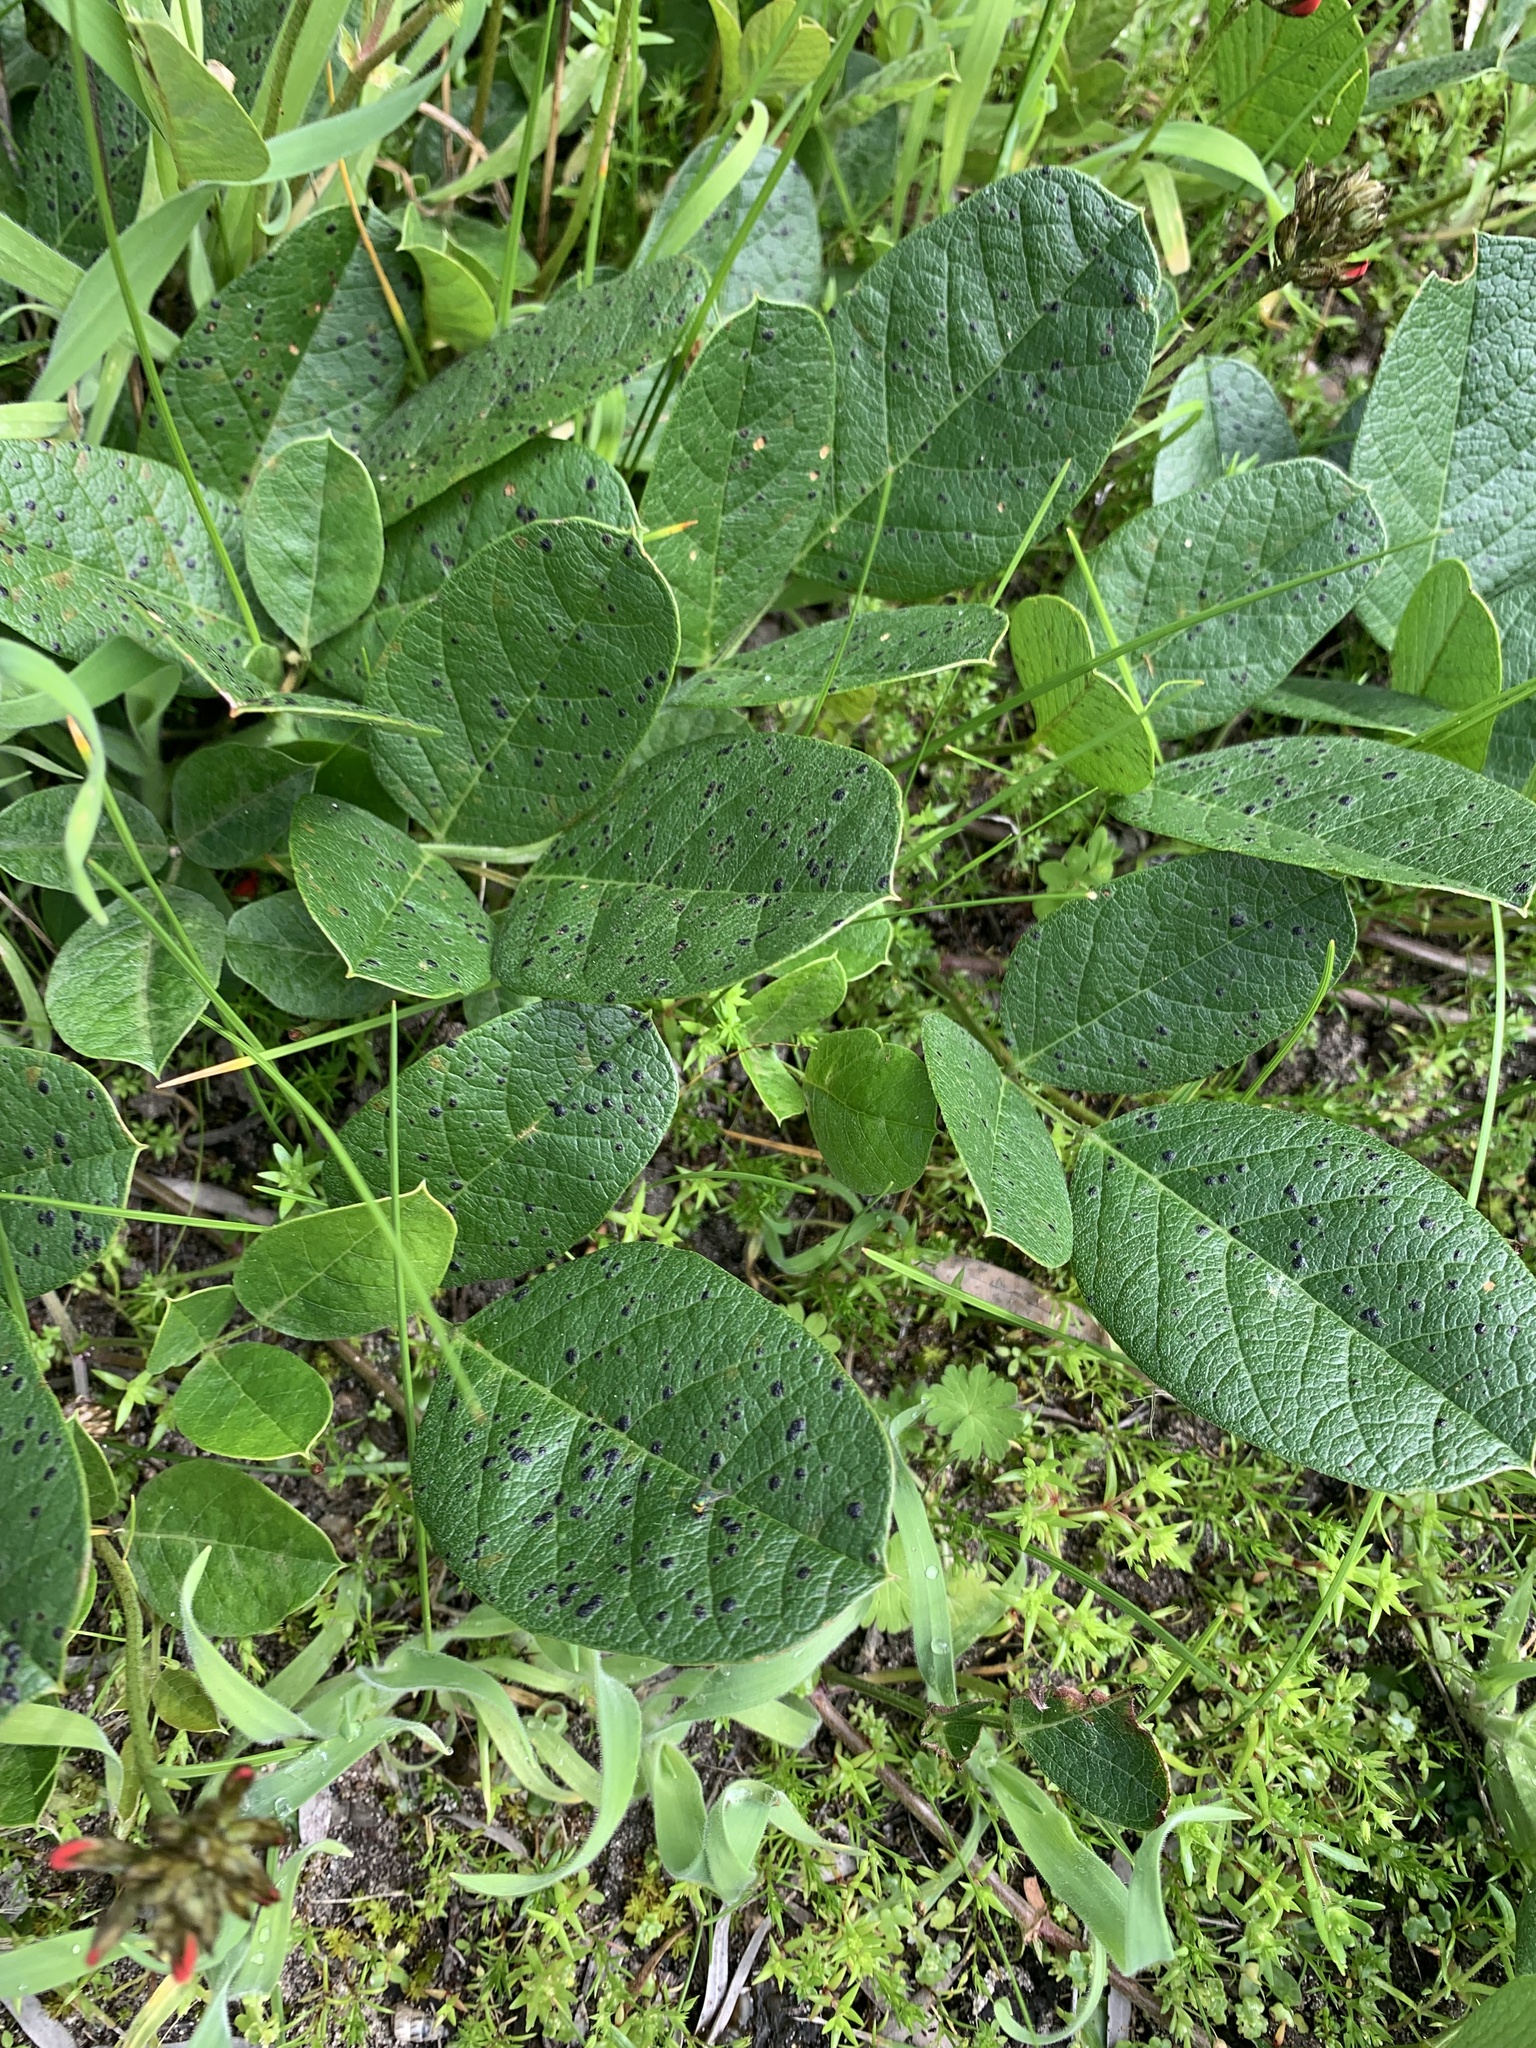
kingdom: Plantae
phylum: Tracheophyta
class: Magnoliopsida
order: Fabales
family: Fabaceae
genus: Kennedia
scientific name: Kennedia coccinea
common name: Coralvine
